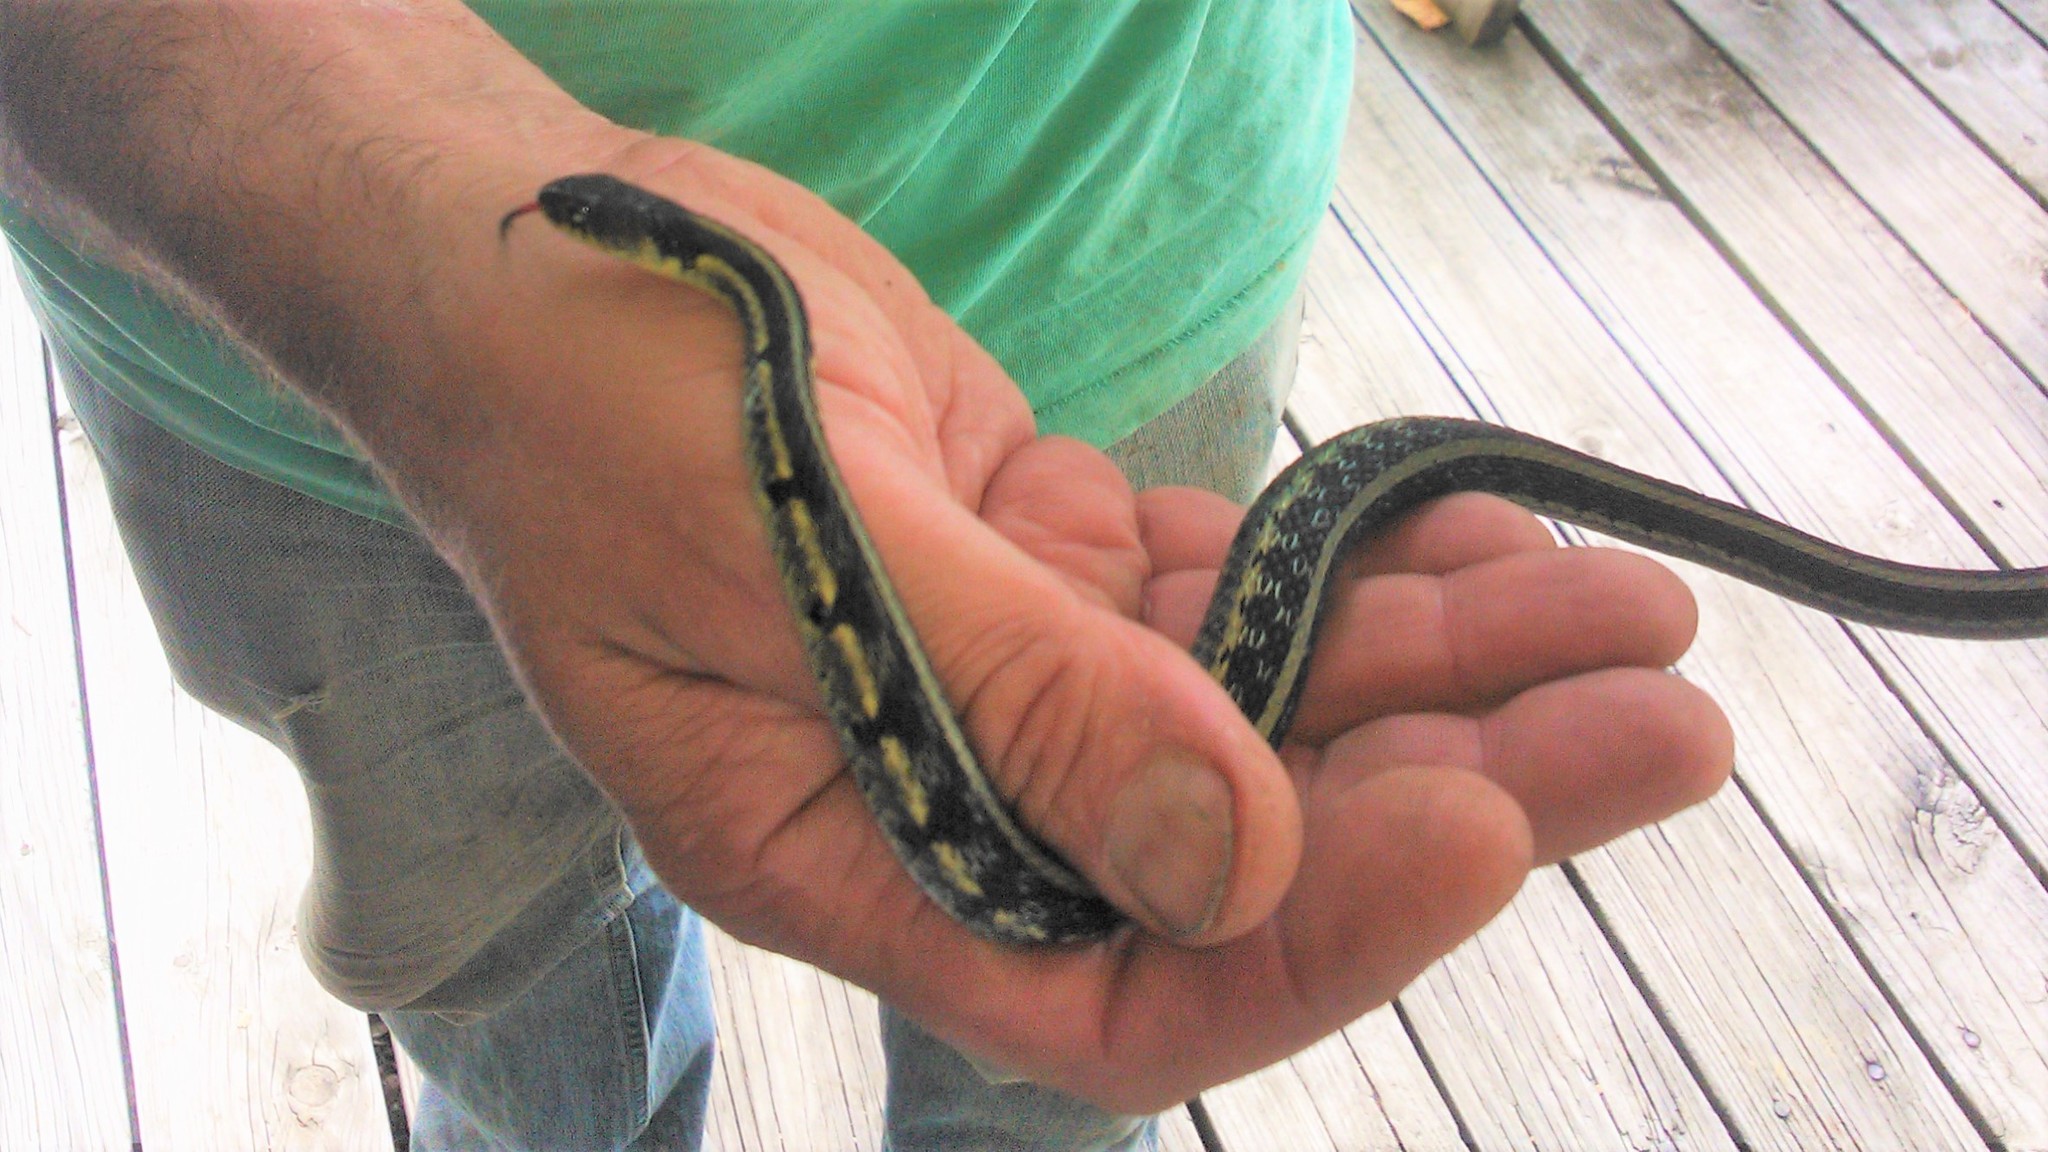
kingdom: Animalia
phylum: Chordata
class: Squamata
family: Colubridae
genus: Thamnophis
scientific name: Thamnophis sirtalis
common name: Common garter snake
